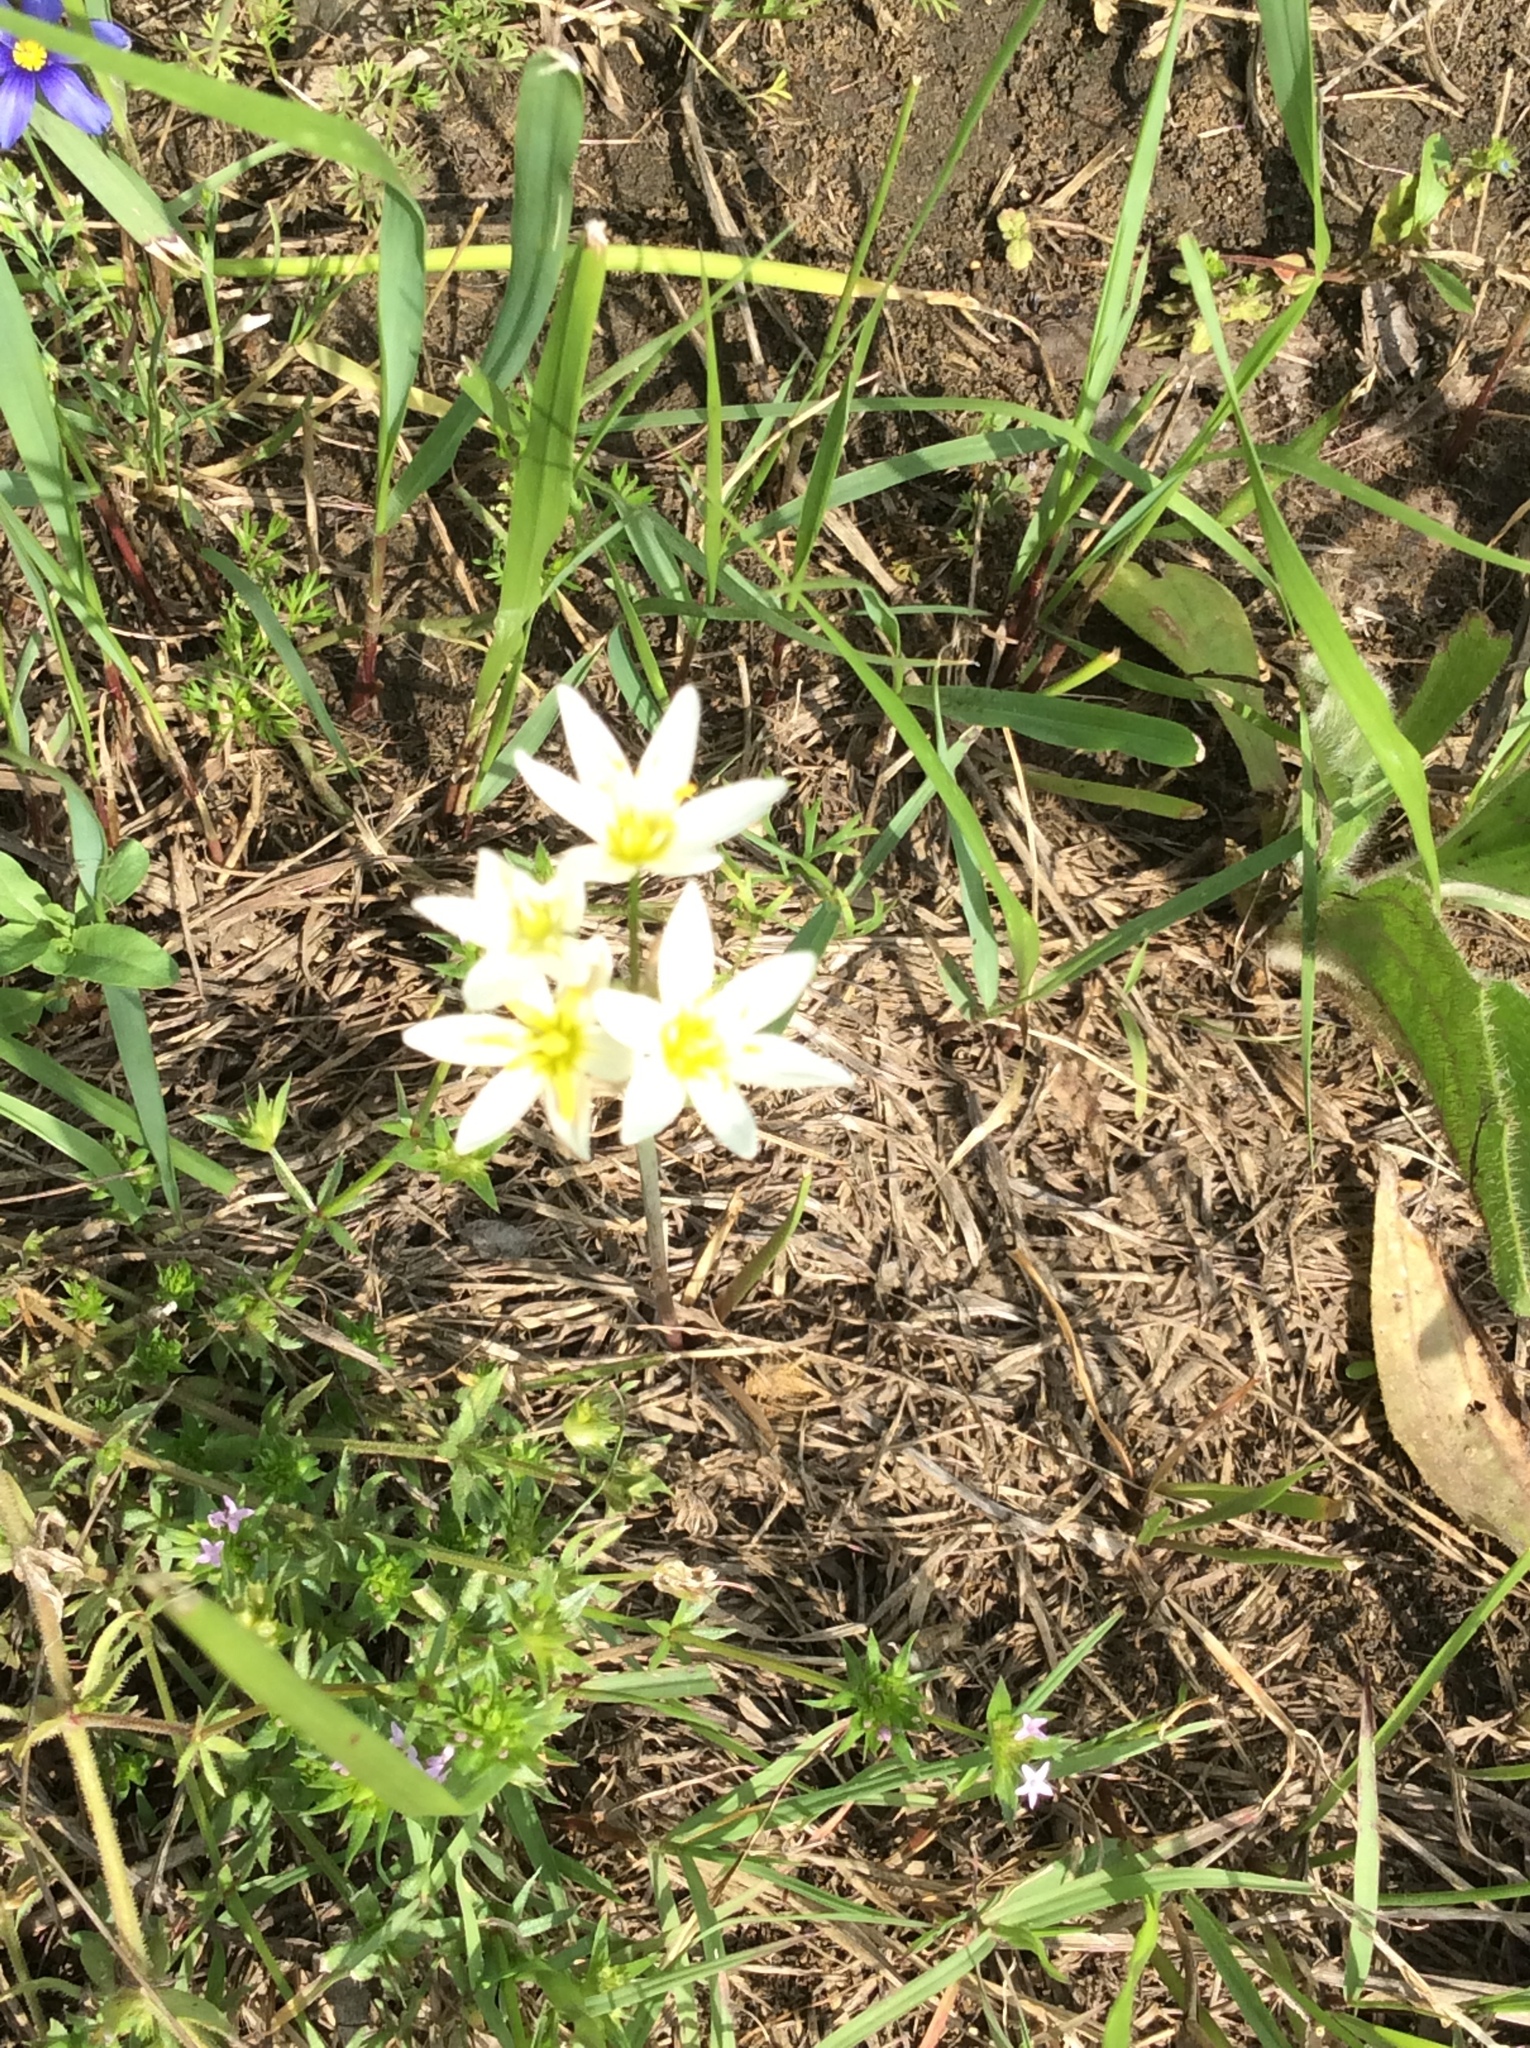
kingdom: Plantae
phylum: Tracheophyta
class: Liliopsida
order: Asparagales
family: Amaryllidaceae
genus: Nothoscordum
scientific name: Nothoscordum bivalve
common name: Crow-poison
